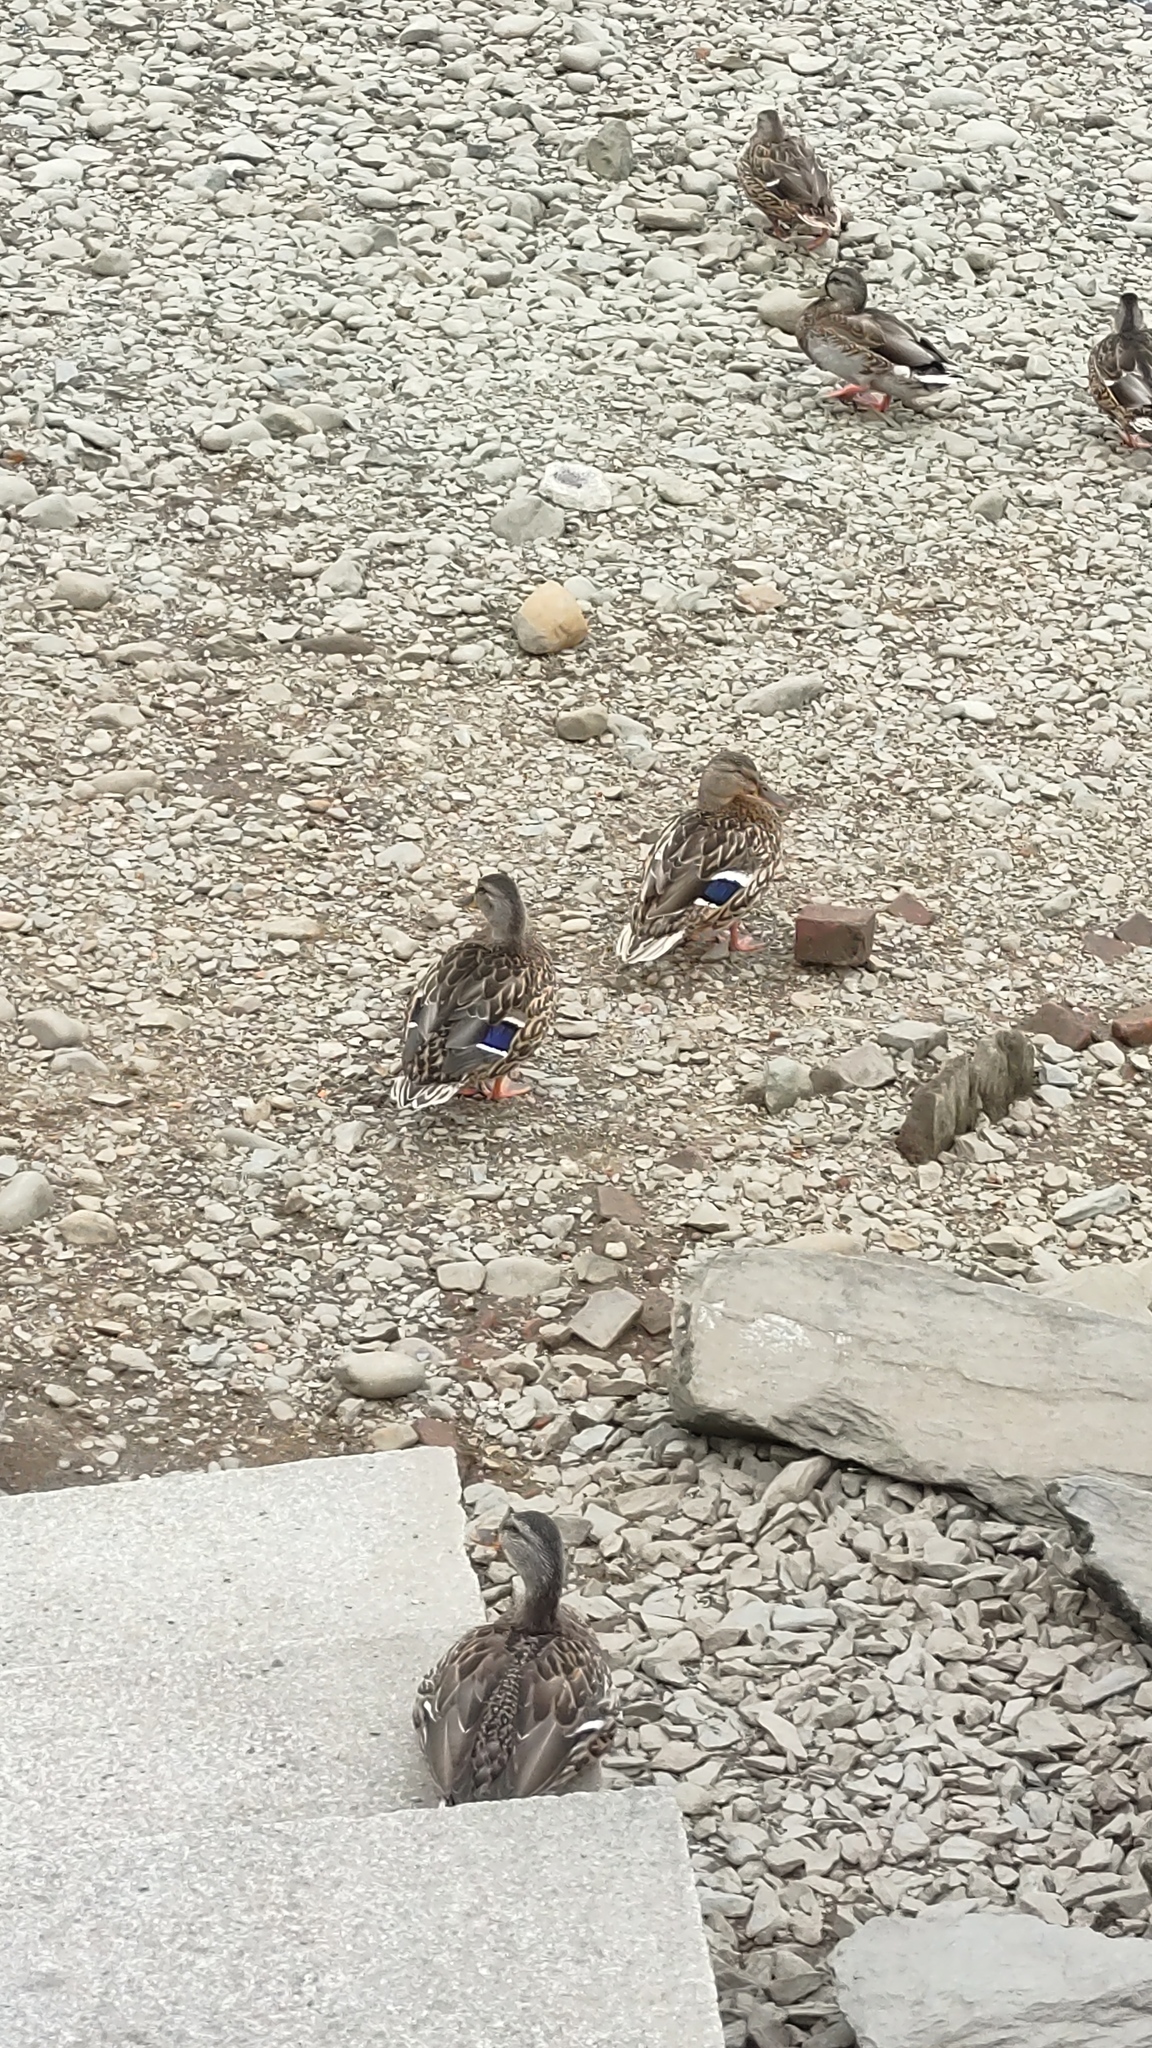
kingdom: Animalia
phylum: Chordata
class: Aves
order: Anseriformes
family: Anatidae
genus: Anas
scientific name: Anas platyrhynchos
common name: Mallard
